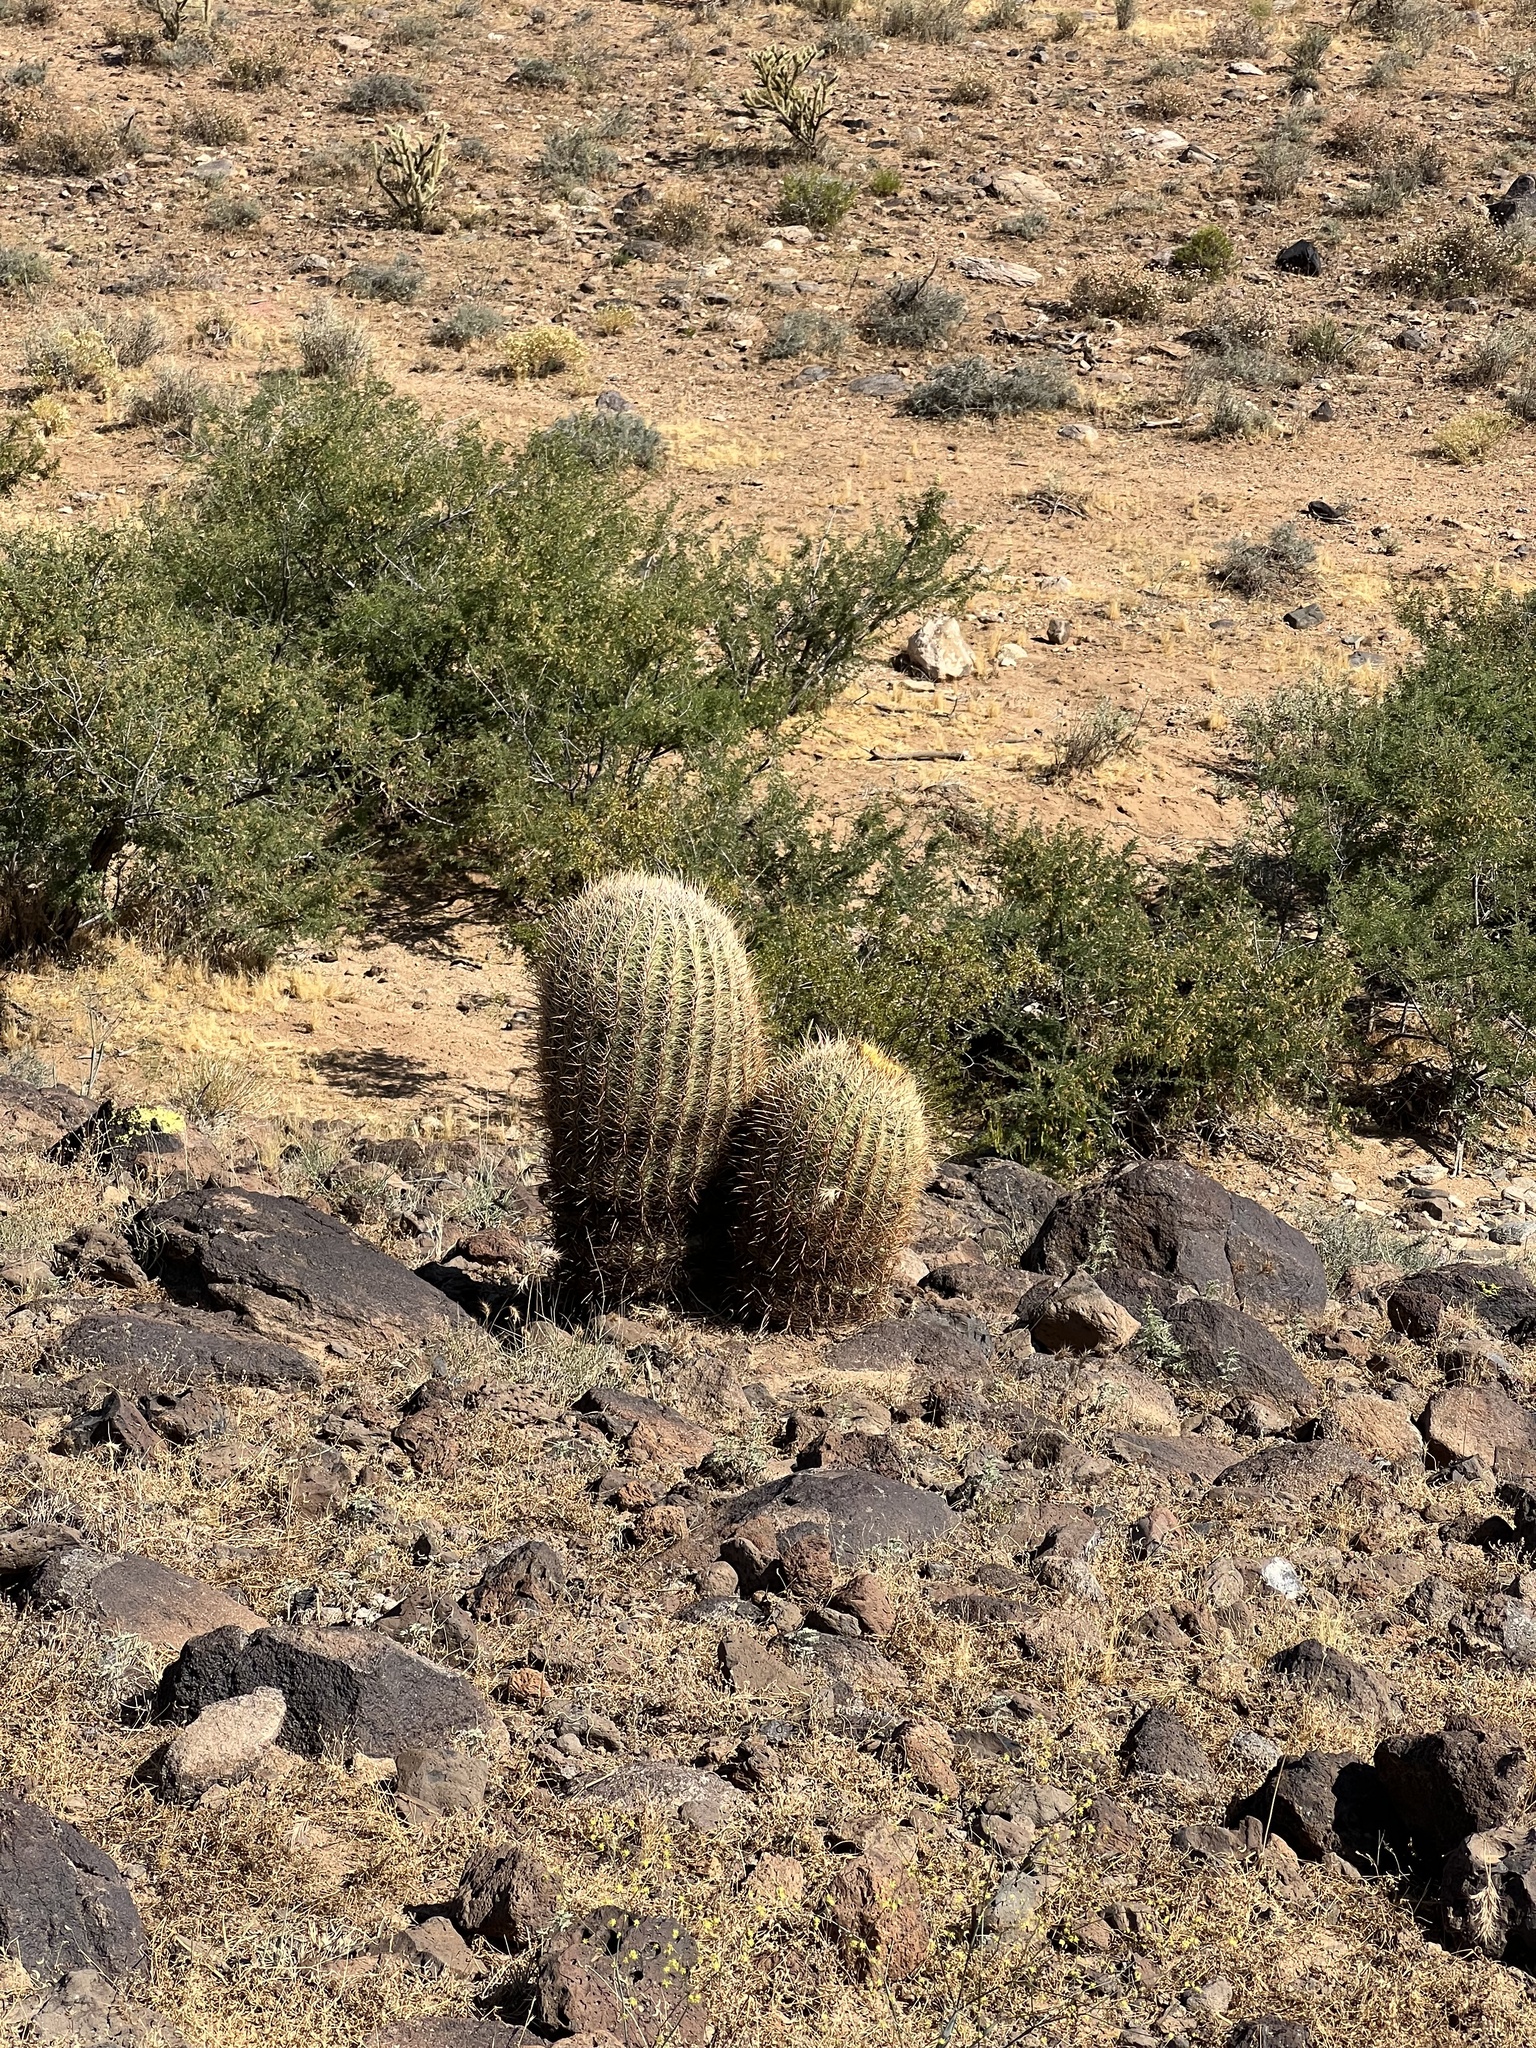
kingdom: Plantae
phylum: Tracheophyta
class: Magnoliopsida
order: Caryophyllales
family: Cactaceae
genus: Ferocactus
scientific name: Ferocactus cylindraceus
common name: California barrel cactus
